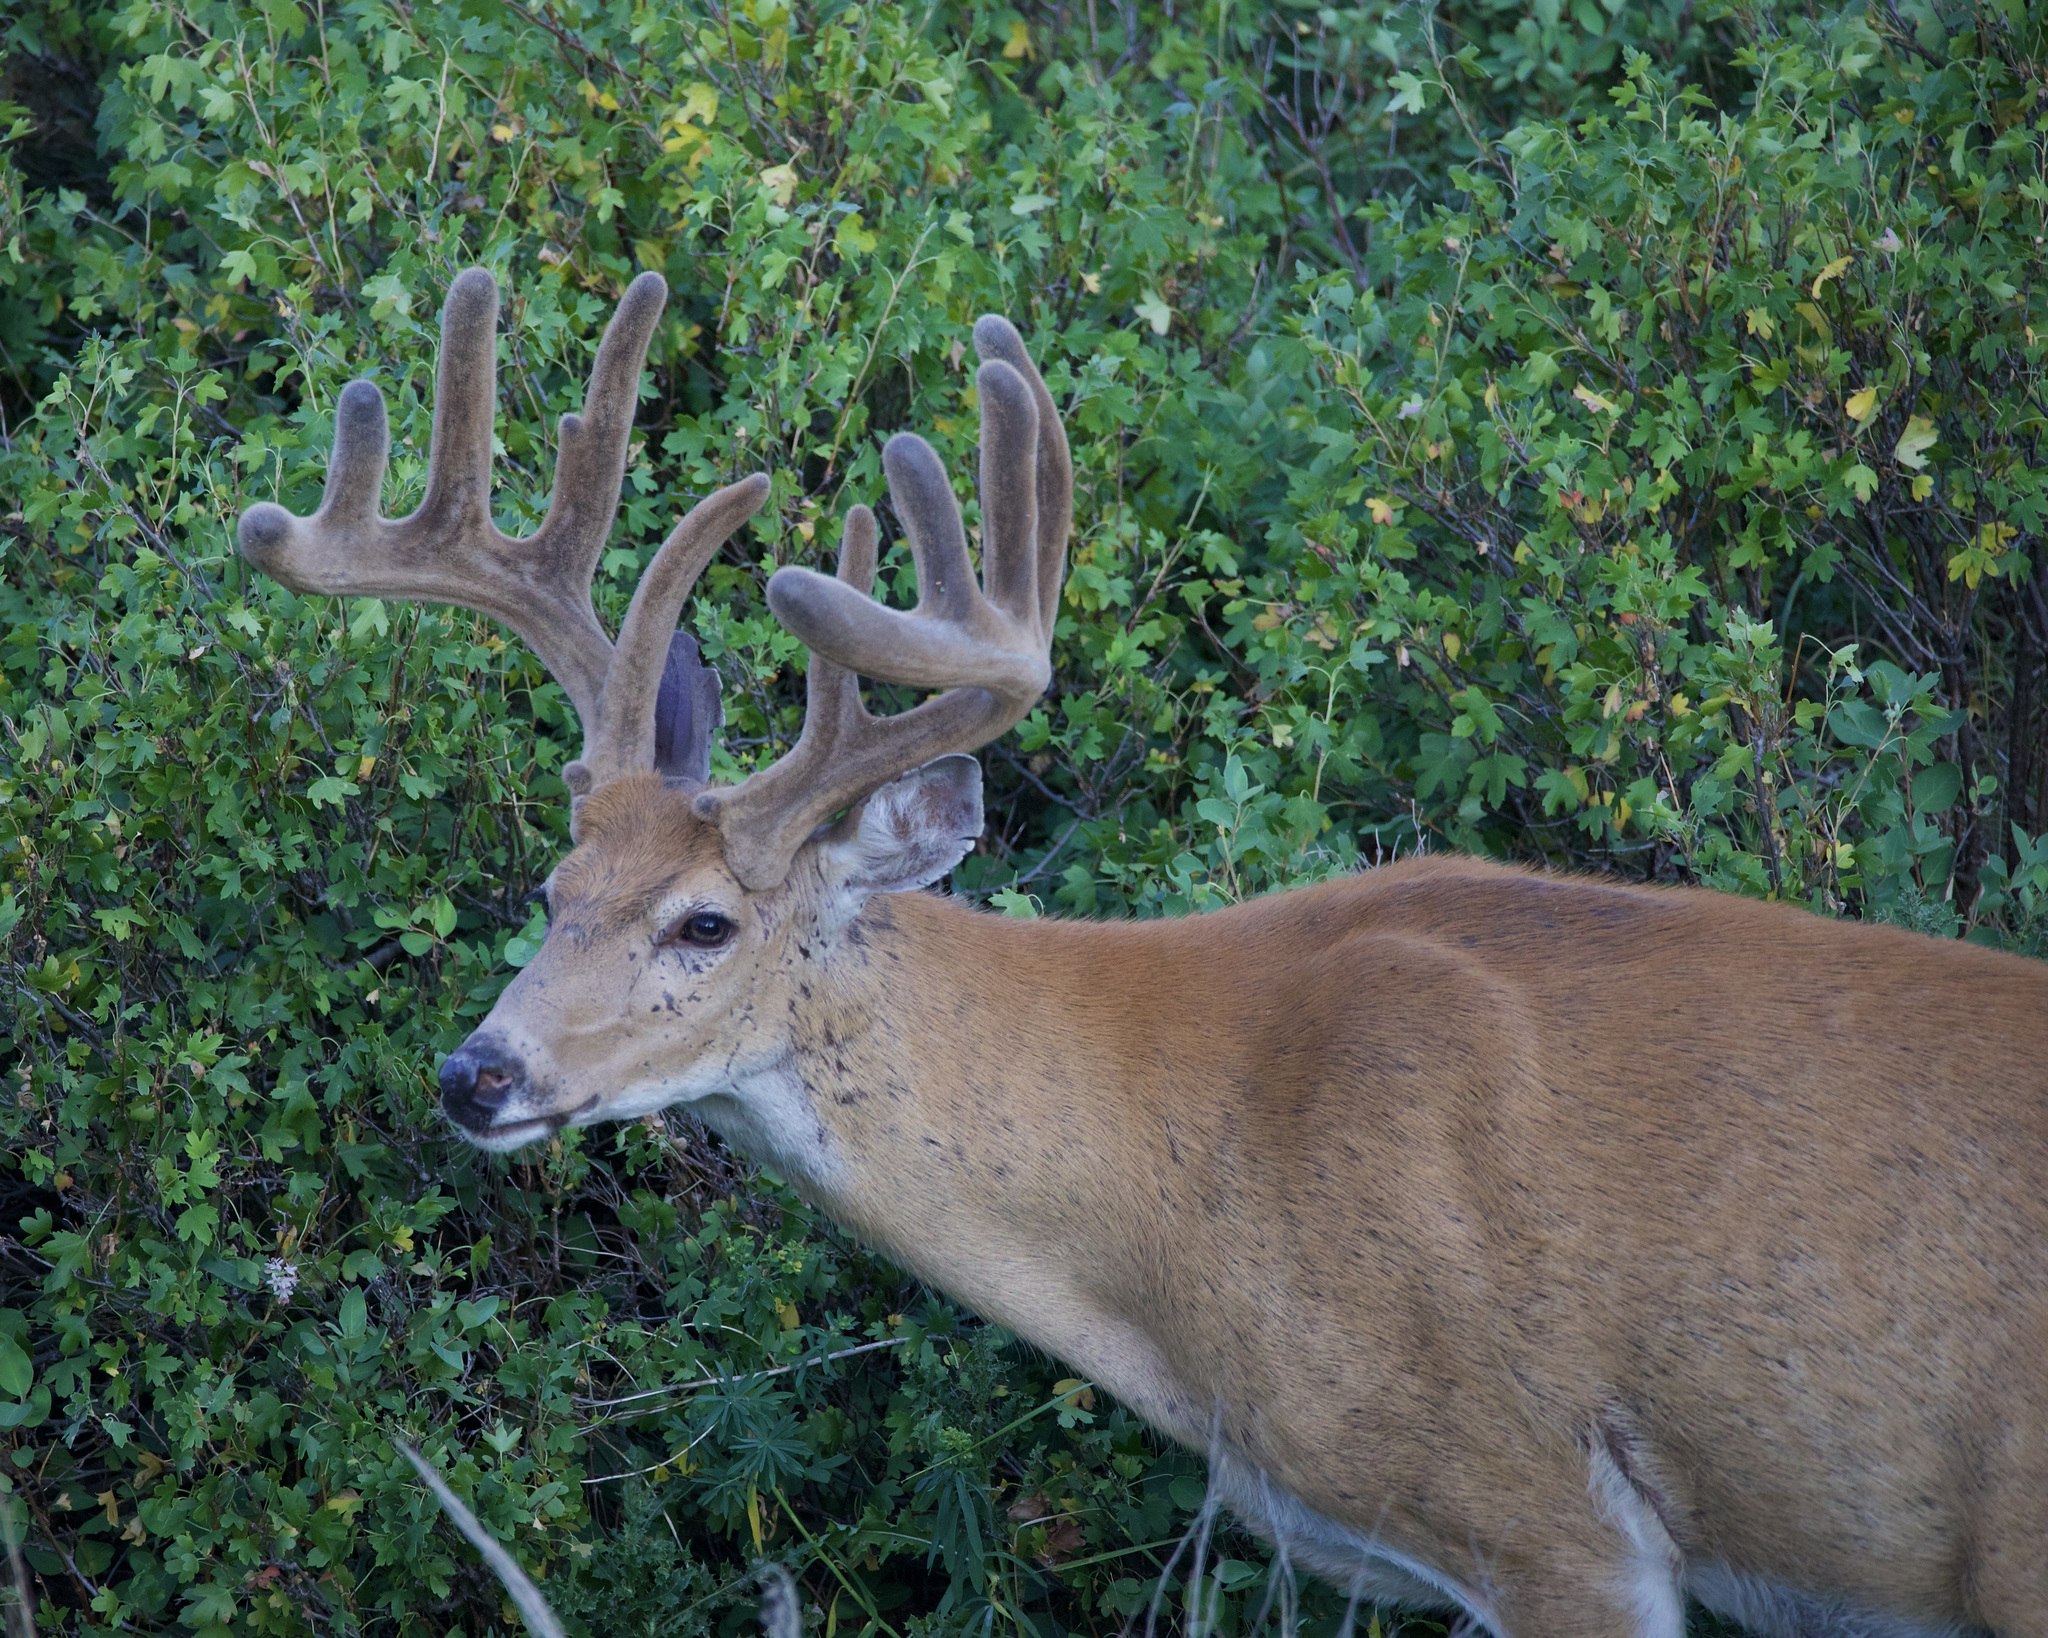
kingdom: Animalia
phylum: Chordata
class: Mammalia
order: Artiodactyla
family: Cervidae
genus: Odocoileus
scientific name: Odocoileus virginianus
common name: White-tailed deer
